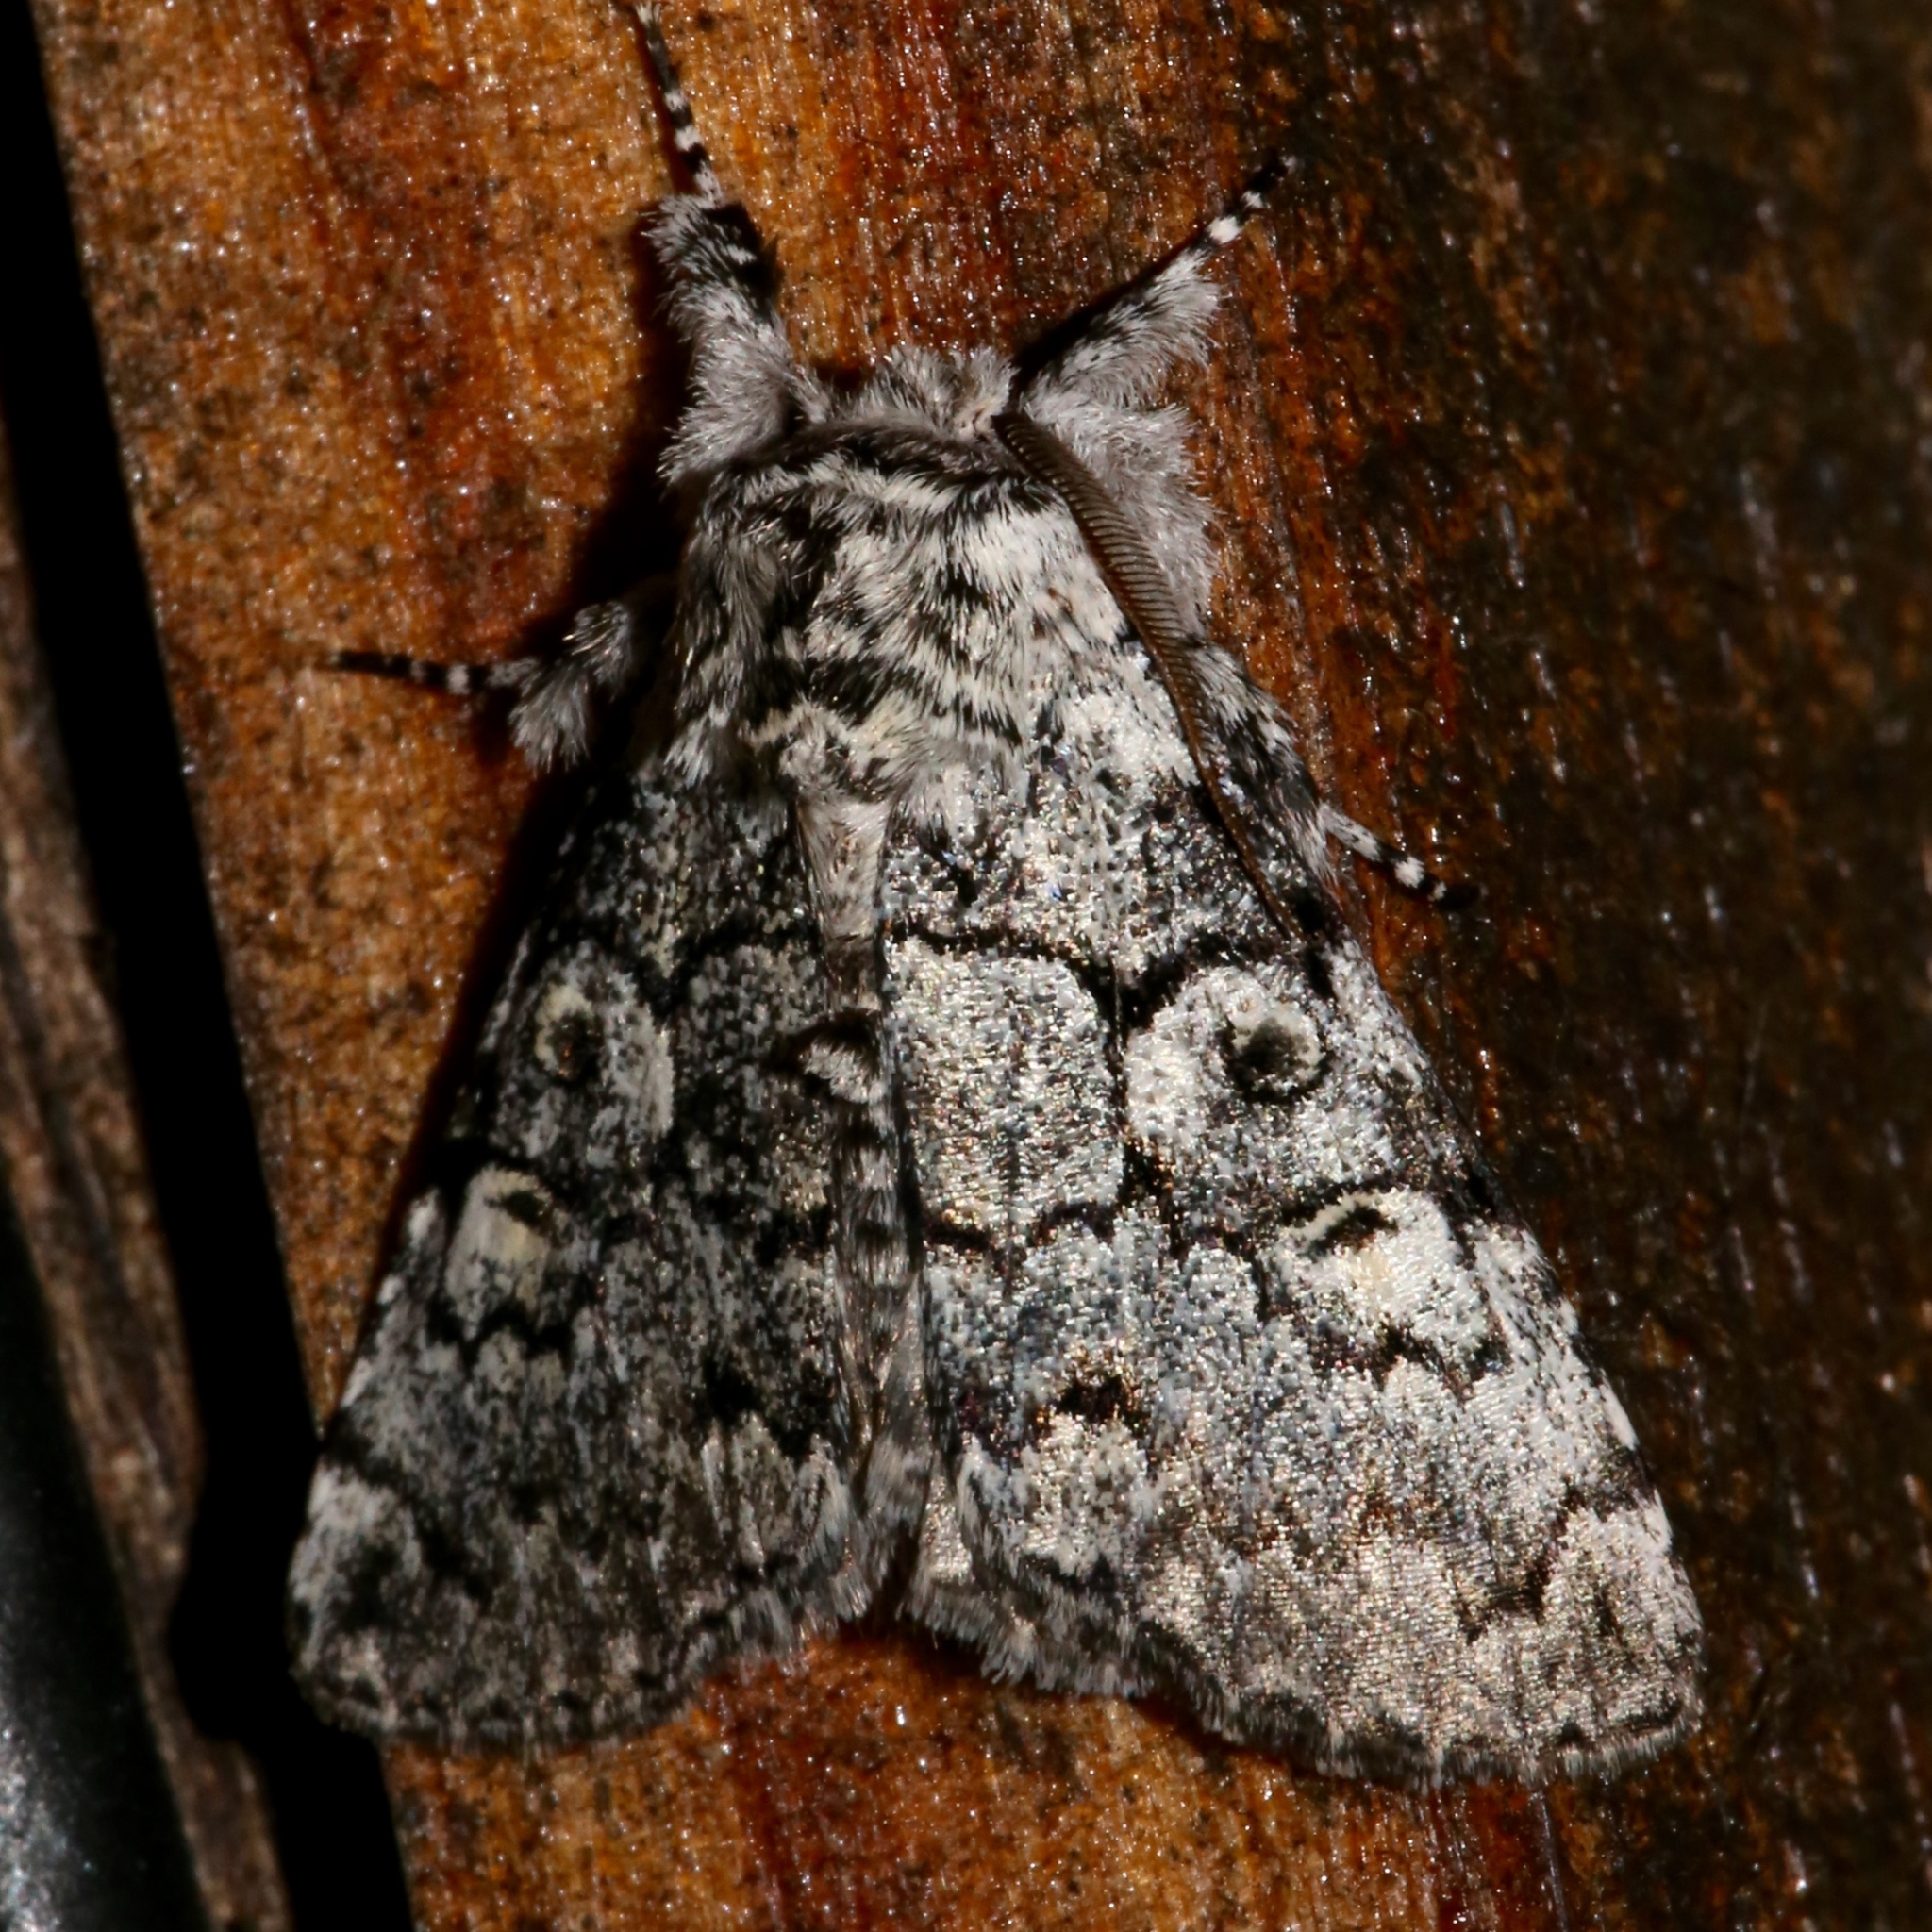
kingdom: Animalia
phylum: Arthropoda
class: Insecta
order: Lepidoptera
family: Noctuidae
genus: Charadra
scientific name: Charadra deridens
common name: Marbled tuffet
